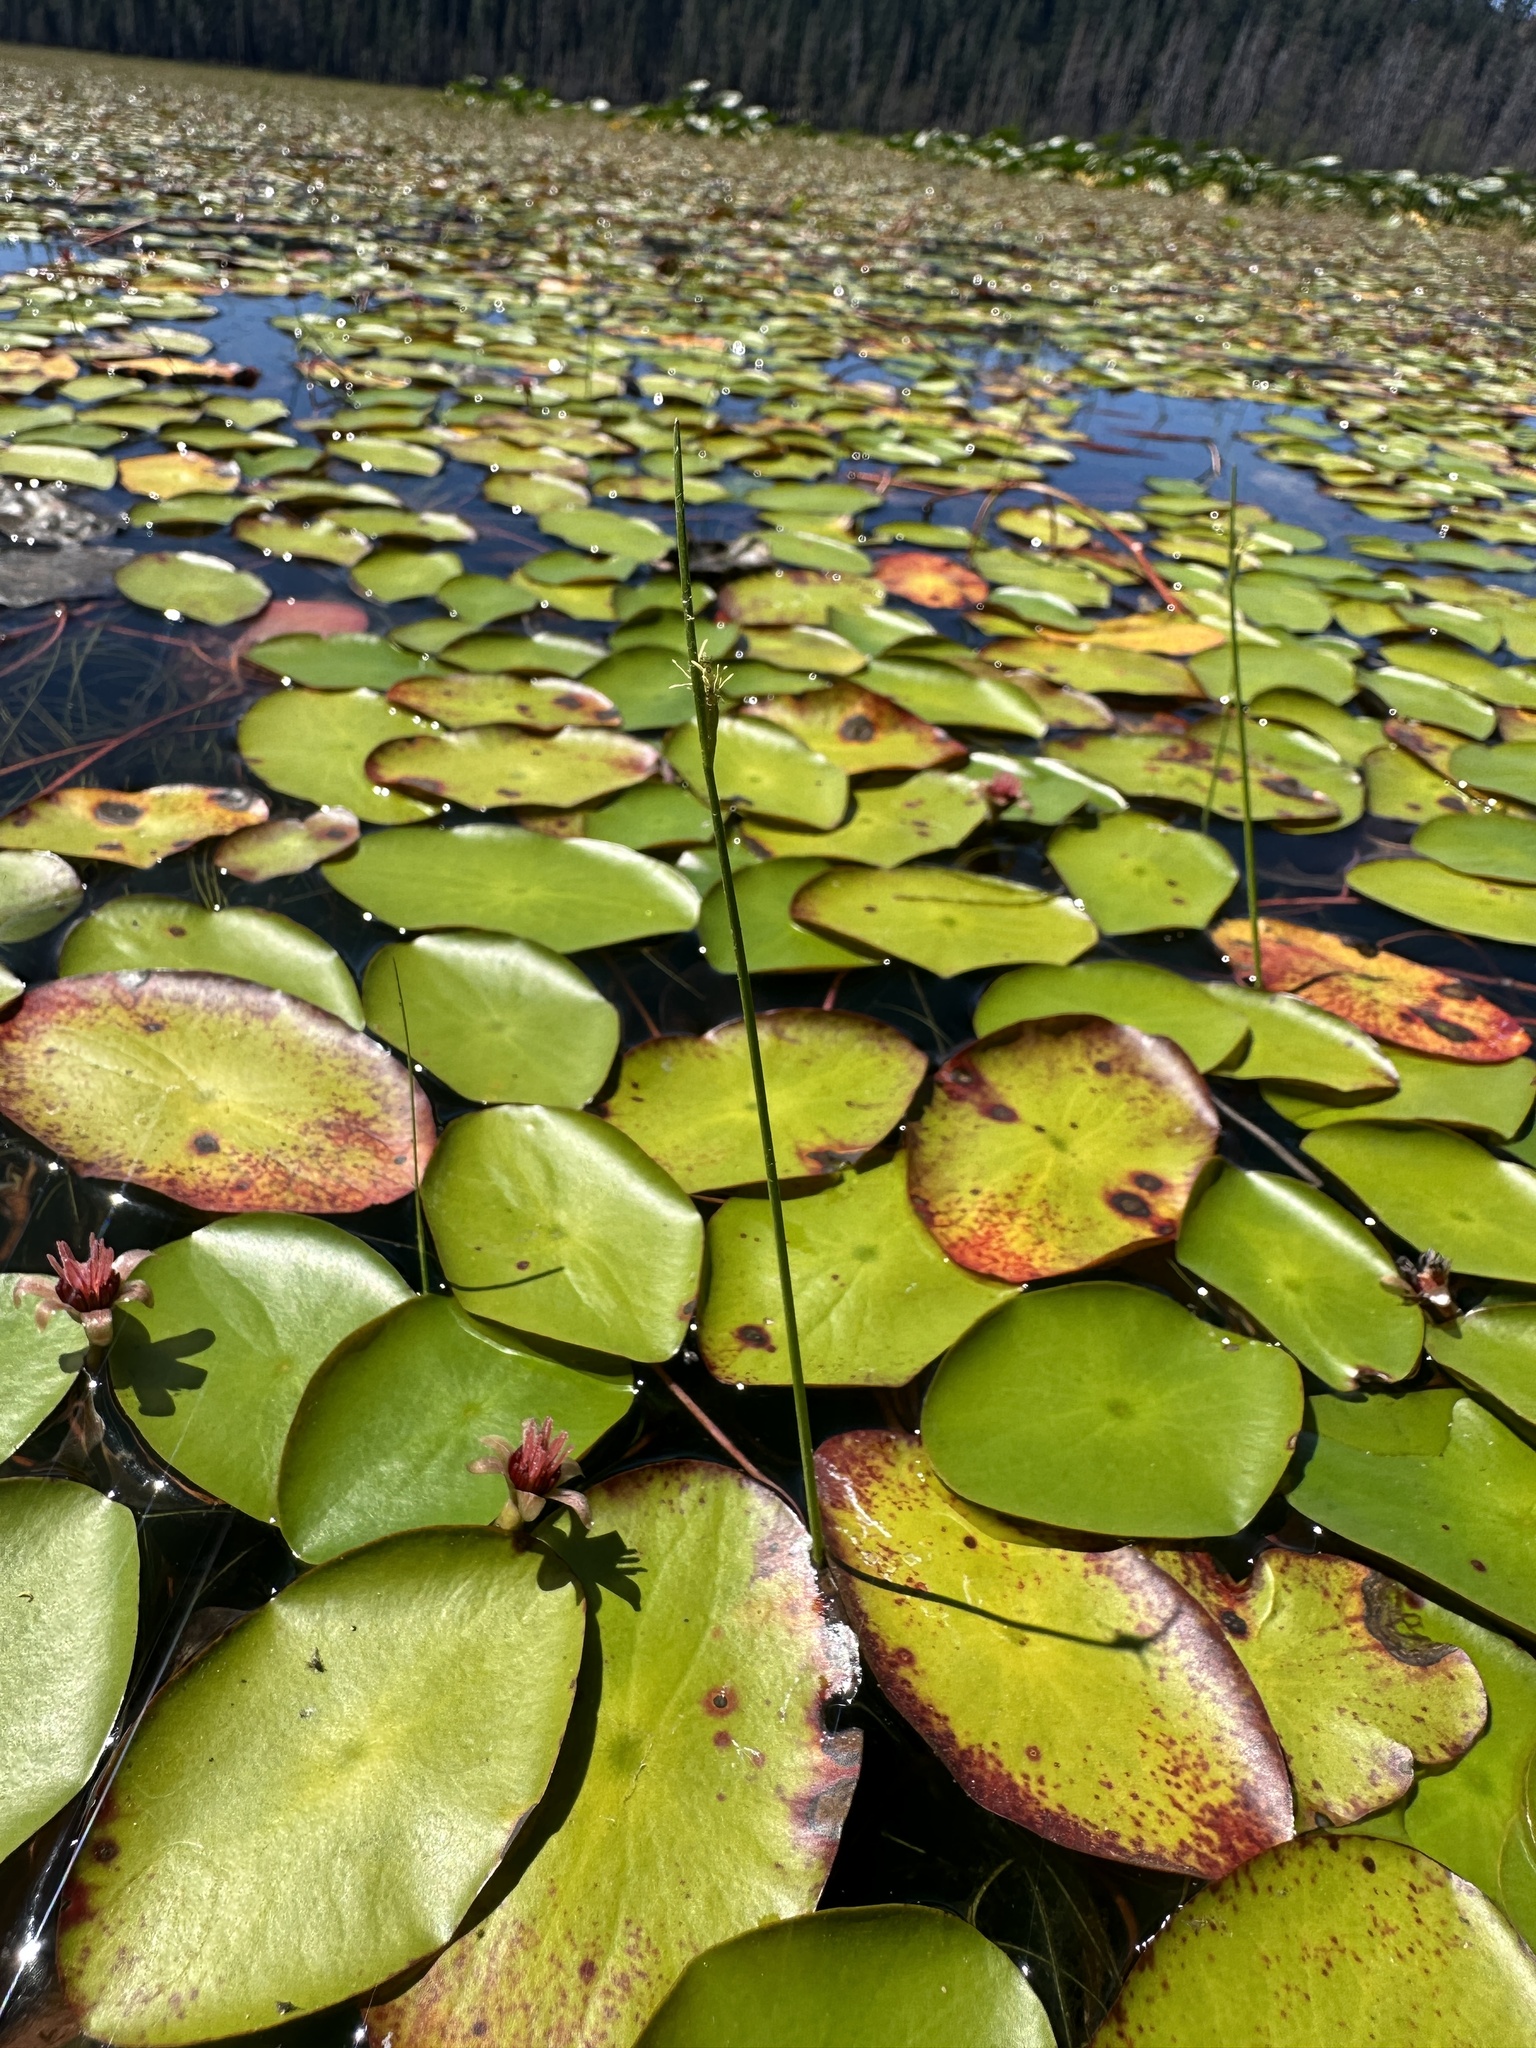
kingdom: Plantae
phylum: Tracheophyta
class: Liliopsida
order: Poales
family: Cyperaceae
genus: Schoenoplectus
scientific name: Schoenoplectus subterminalis
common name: Swaying bulrush
